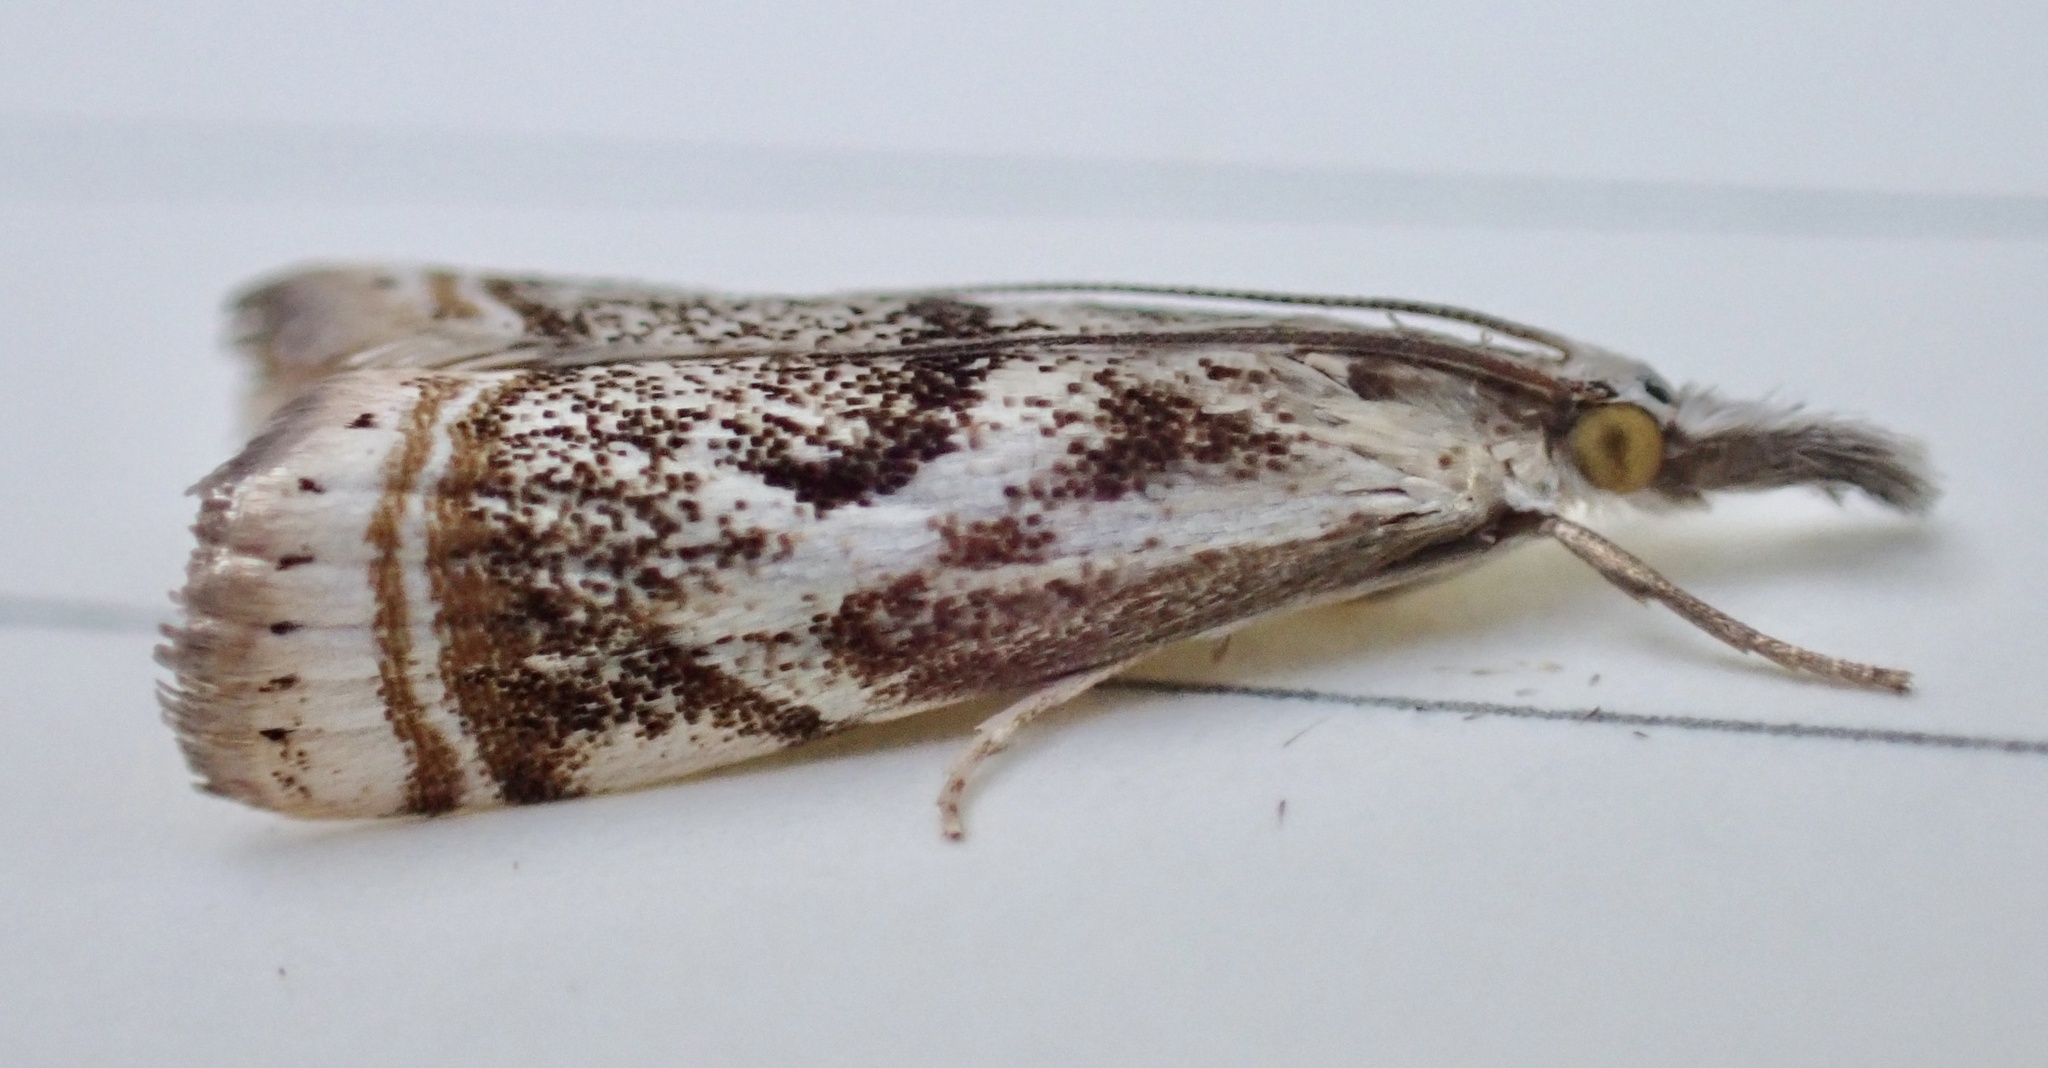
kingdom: Animalia
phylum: Arthropoda
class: Insecta
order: Lepidoptera
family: Crambidae
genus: Microcrambus
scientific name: Microcrambus elegans
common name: Elegant grass-veneer
